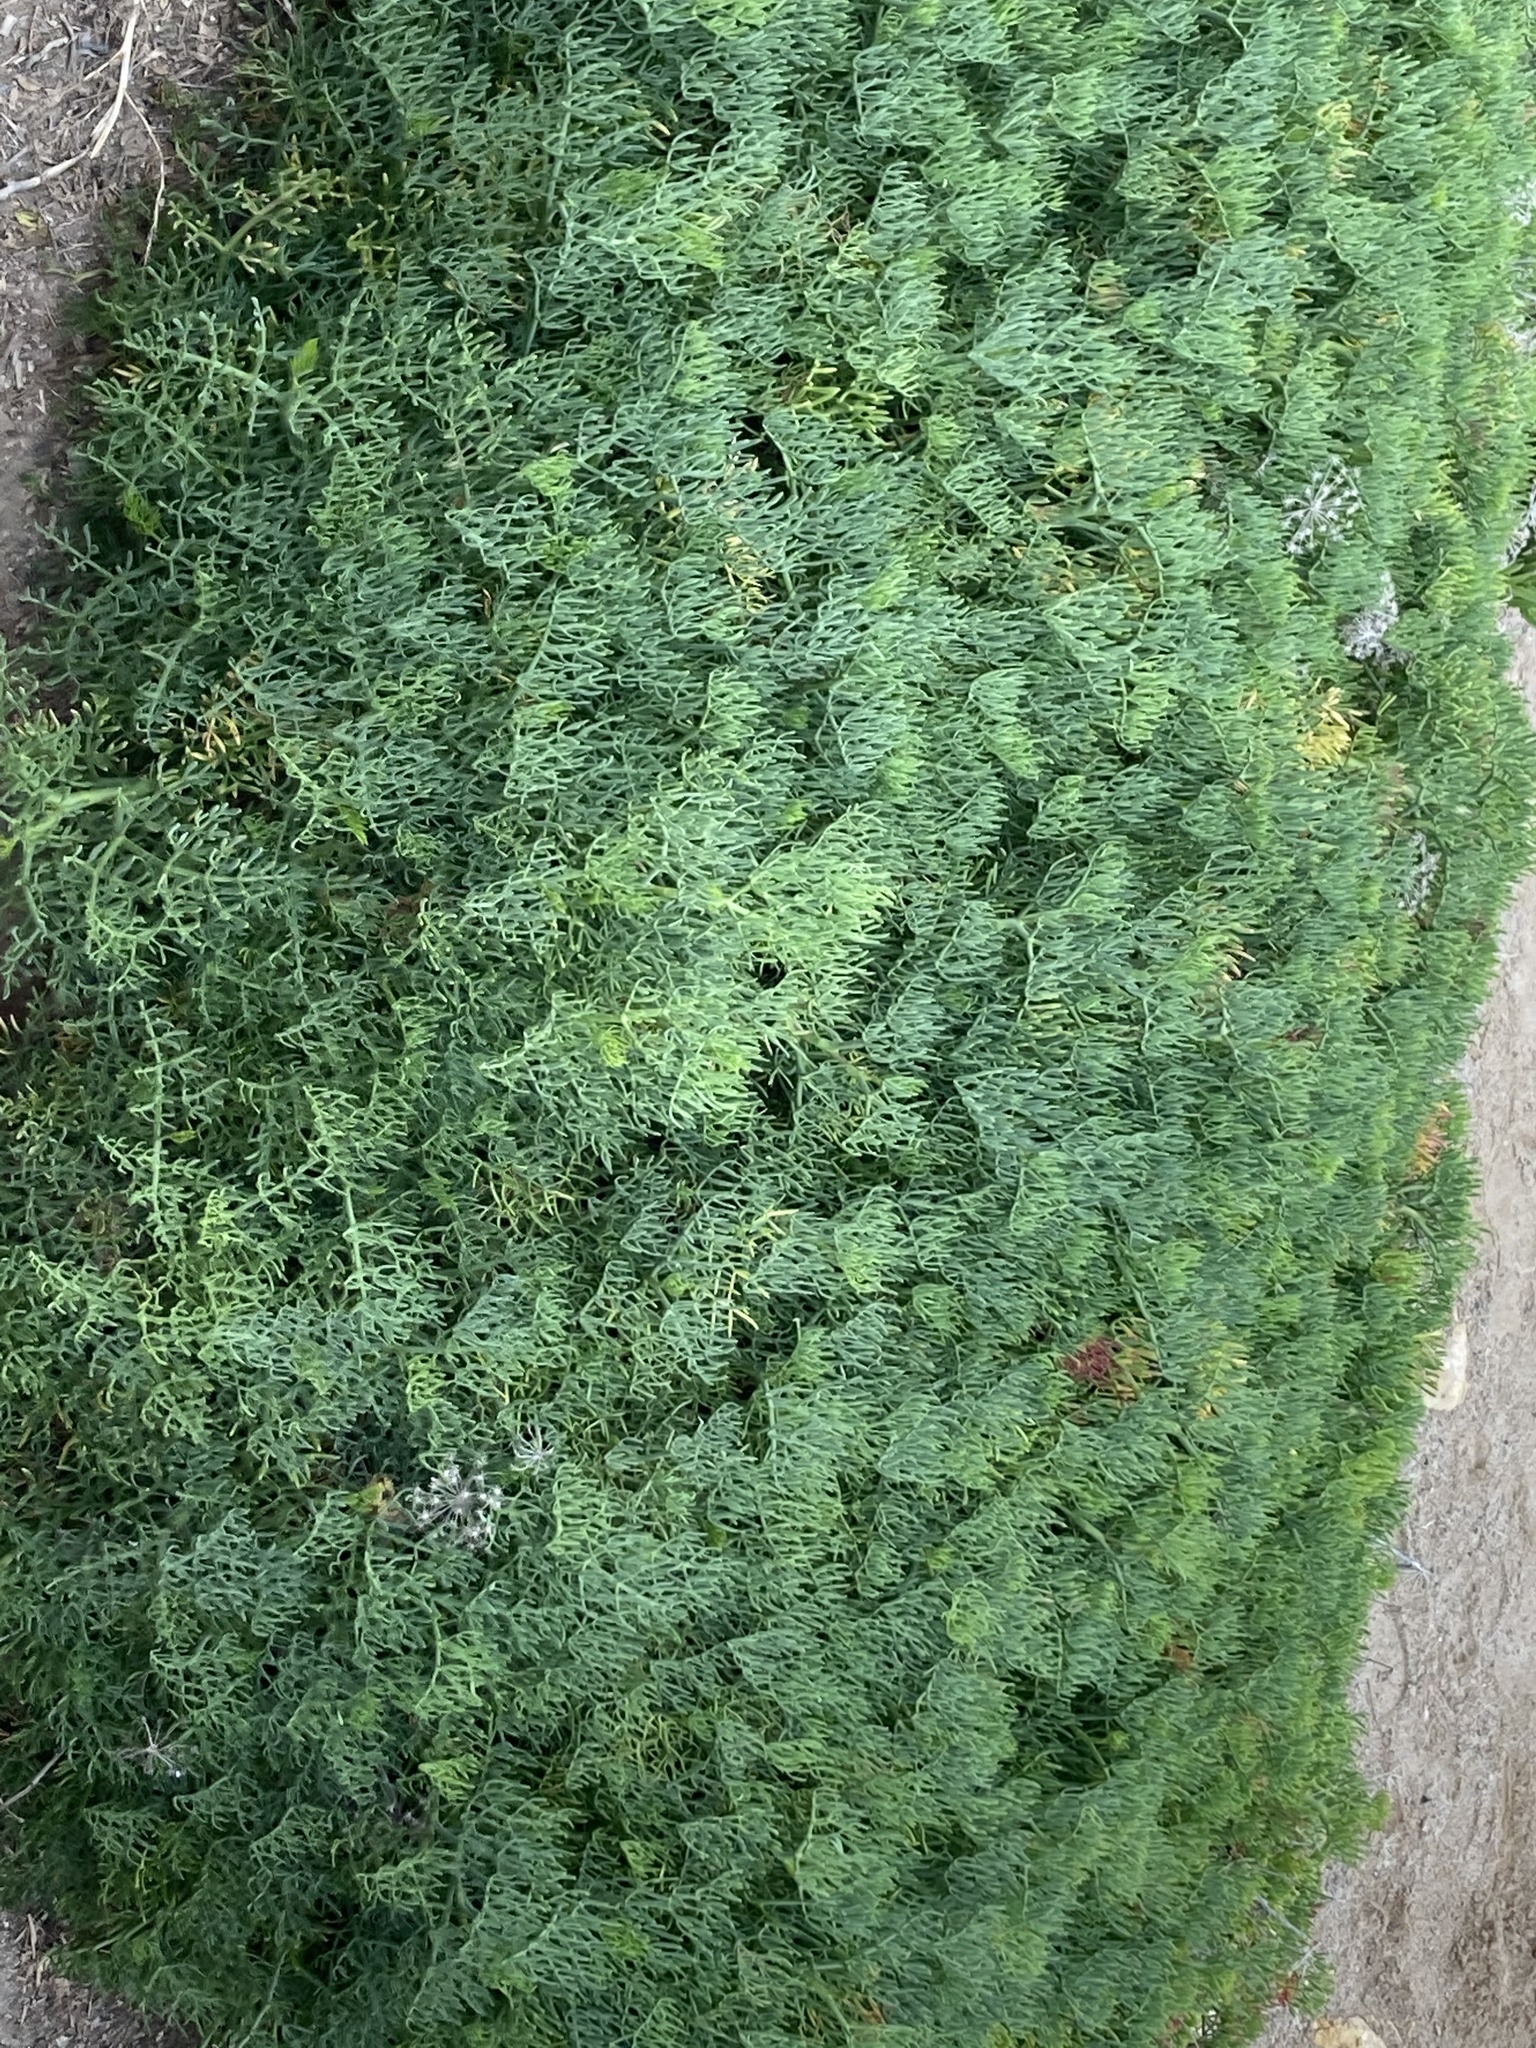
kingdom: Plantae
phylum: Tracheophyta
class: Magnoliopsida
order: Apiales
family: Apiaceae
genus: Crithmum
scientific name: Crithmum maritimum
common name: Rock samphire
